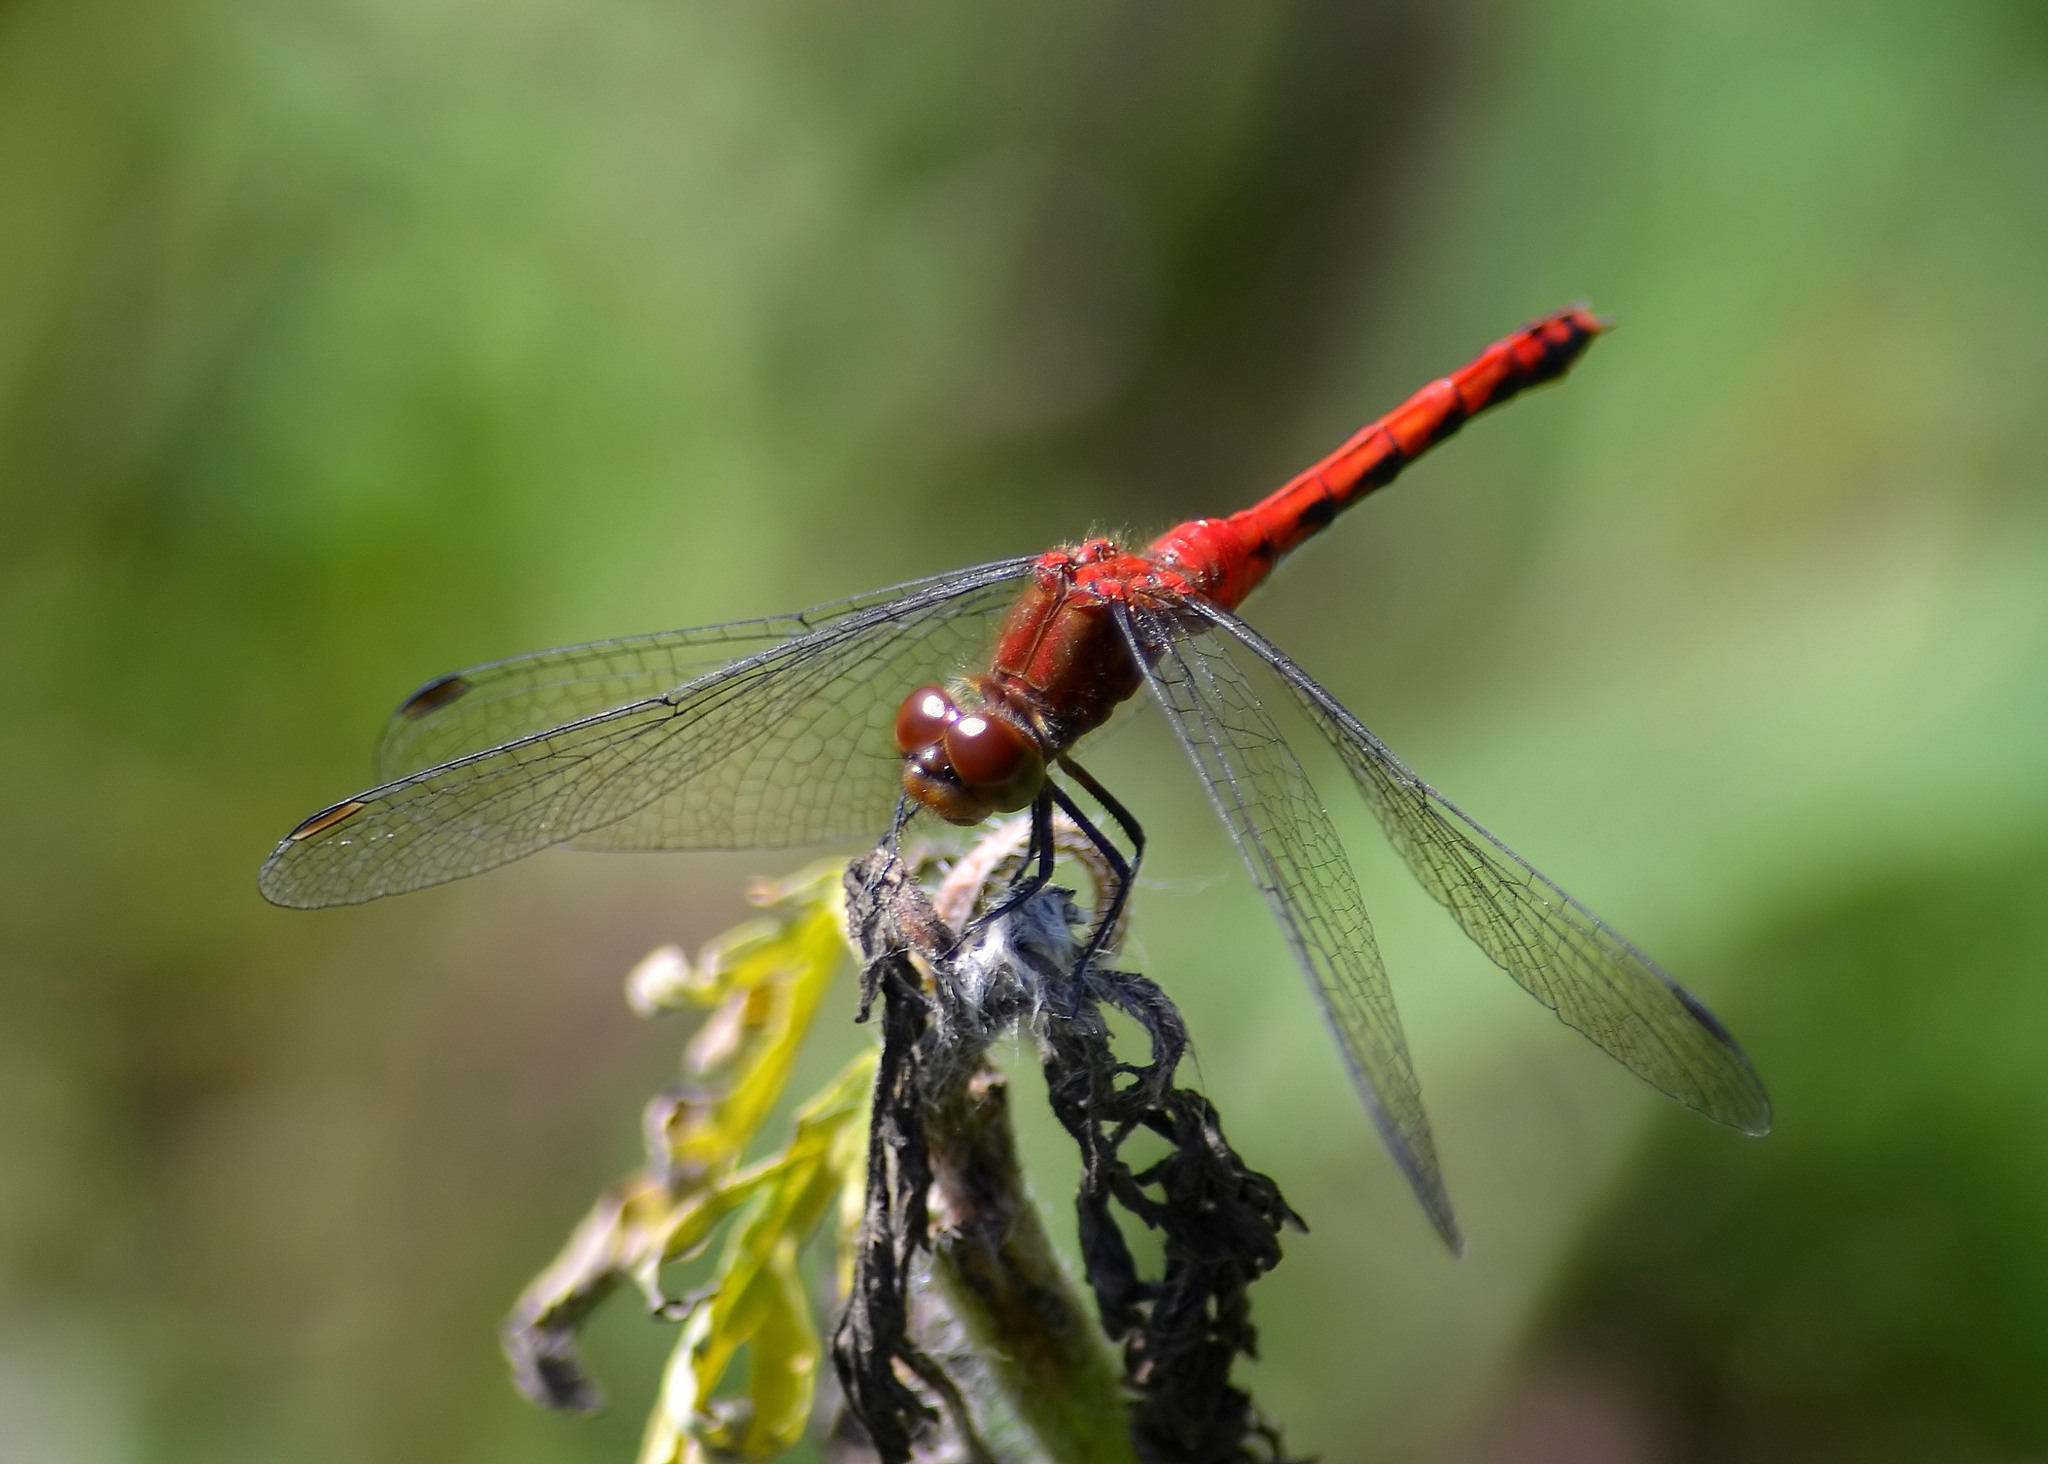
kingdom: Animalia
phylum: Arthropoda
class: Insecta
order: Odonata
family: Libellulidae
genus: Sympetrum
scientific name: Sympetrum
